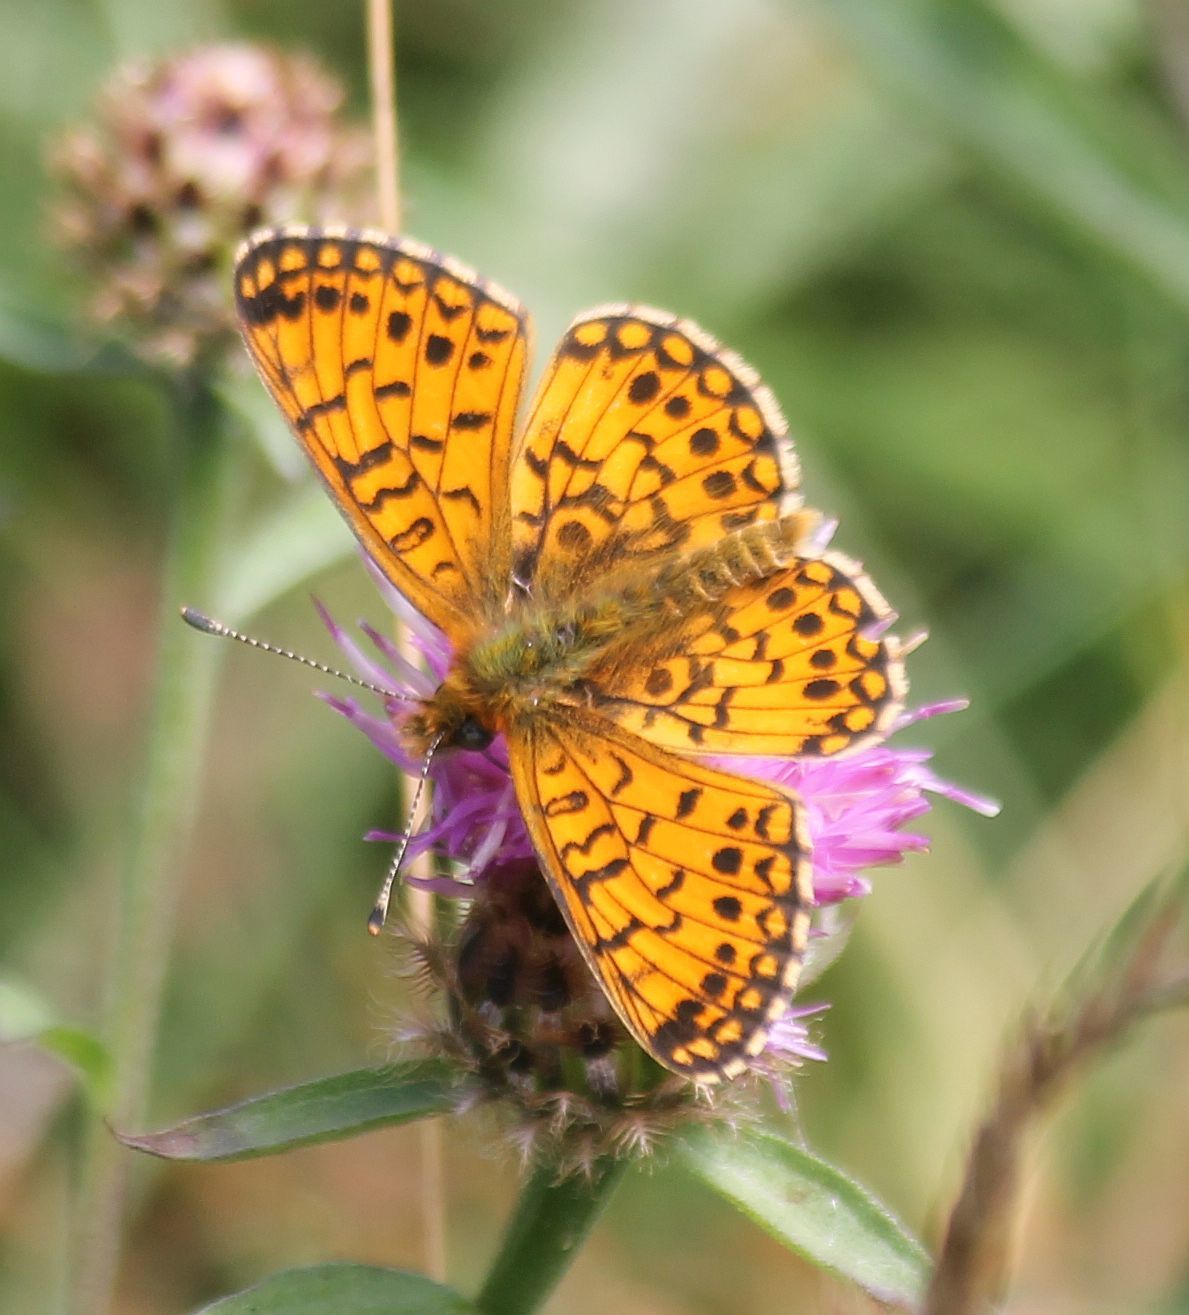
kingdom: Animalia
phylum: Arthropoda
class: Insecta
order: Lepidoptera
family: Nymphalidae
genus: Boloria
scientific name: Boloria selene
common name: Small pearl-bordered fritillary
